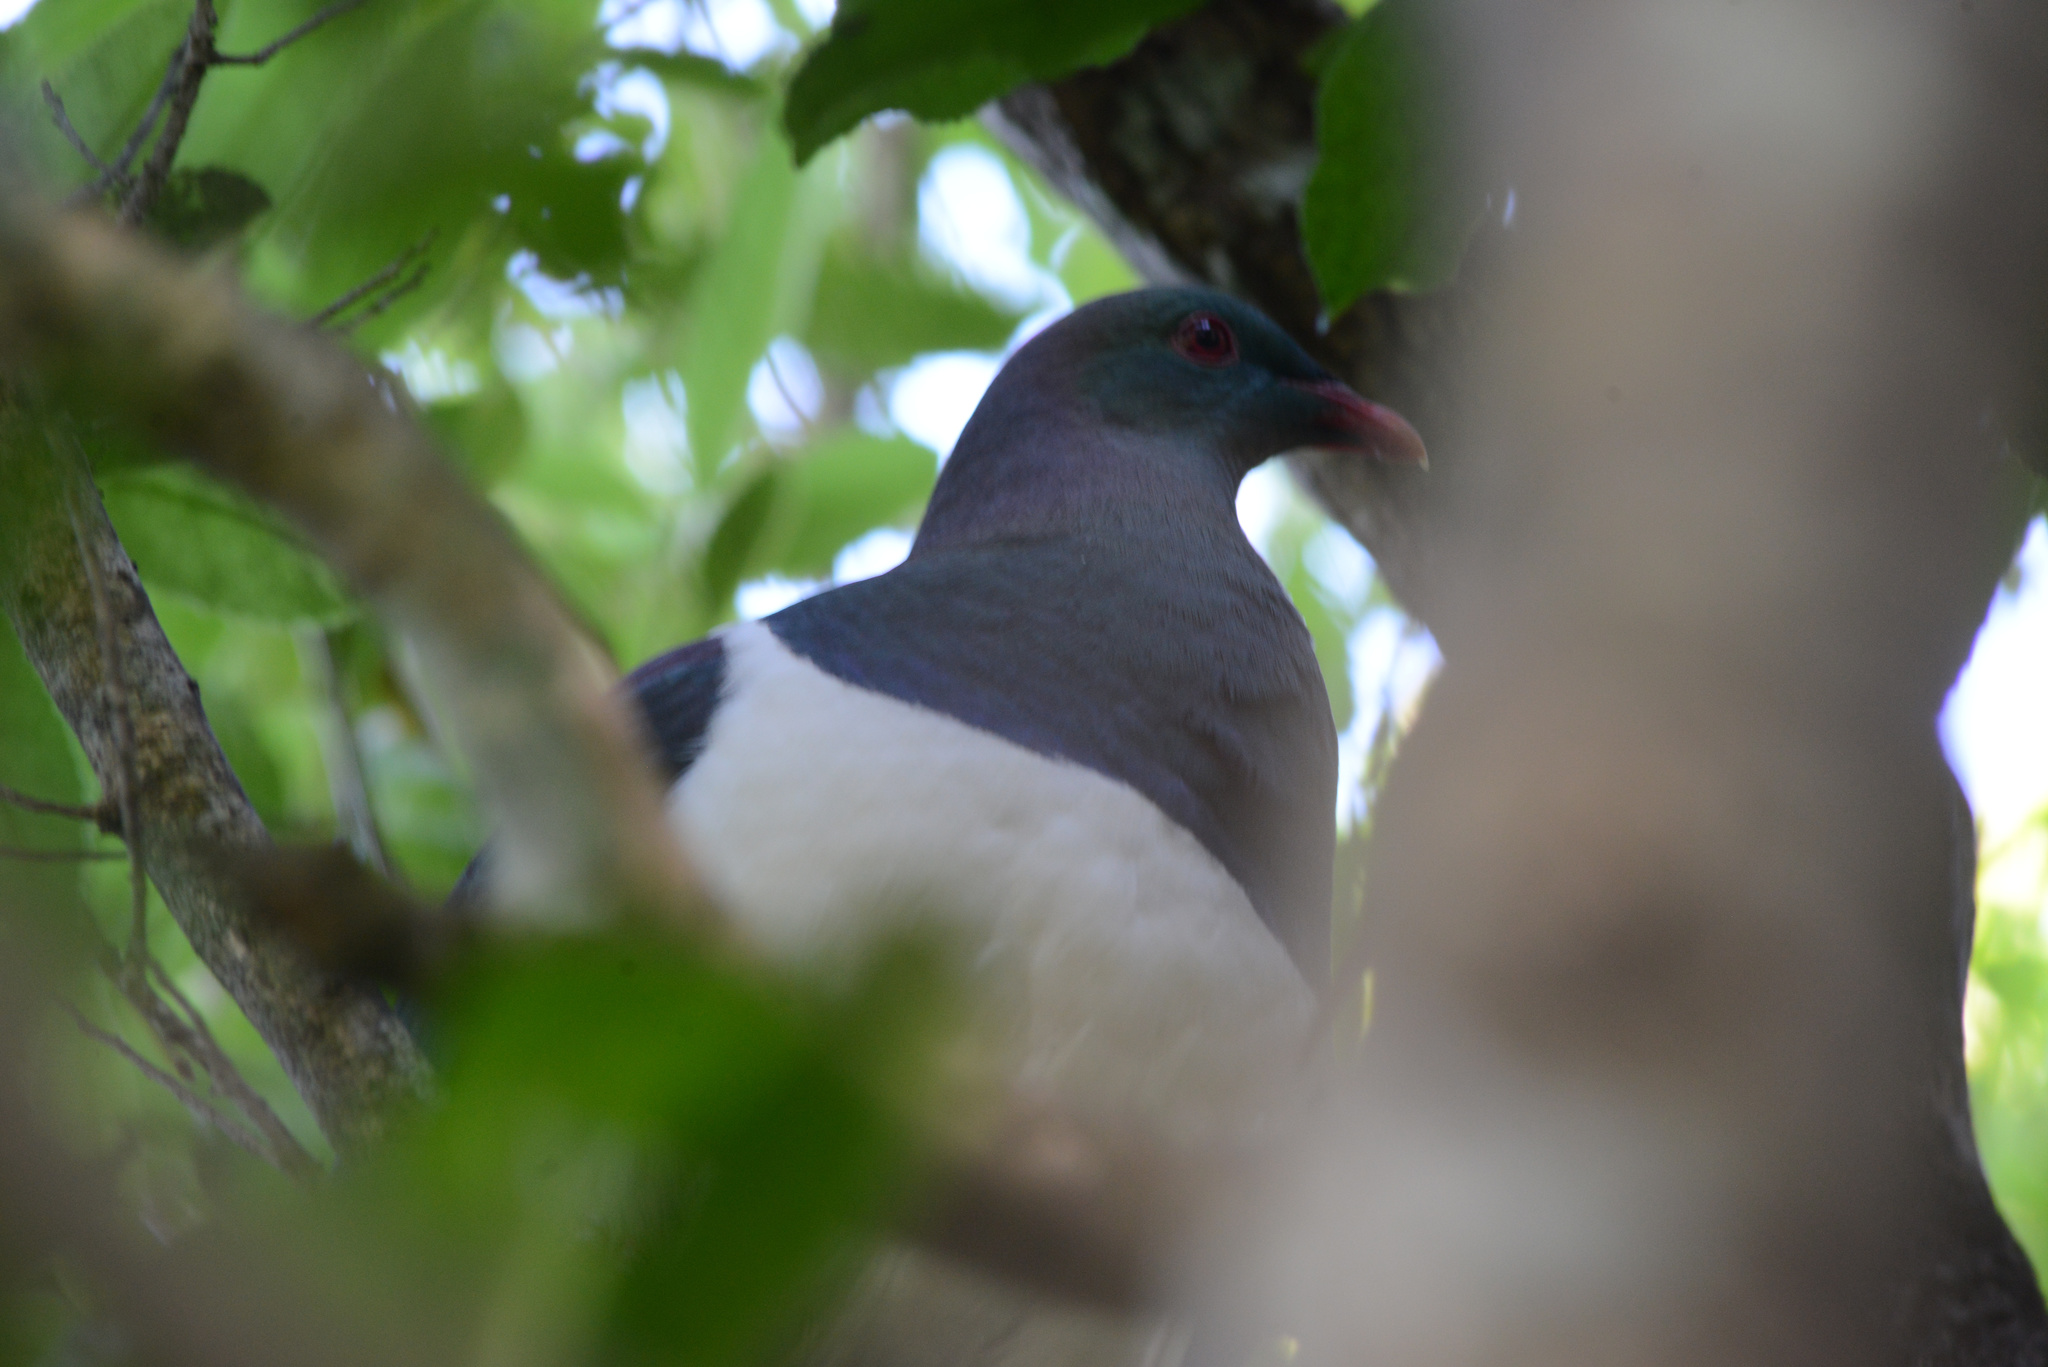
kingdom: Animalia
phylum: Chordata
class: Aves
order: Columbiformes
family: Columbidae
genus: Hemiphaga
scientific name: Hemiphaga novaeseelandiae
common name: New zealand pigeon
